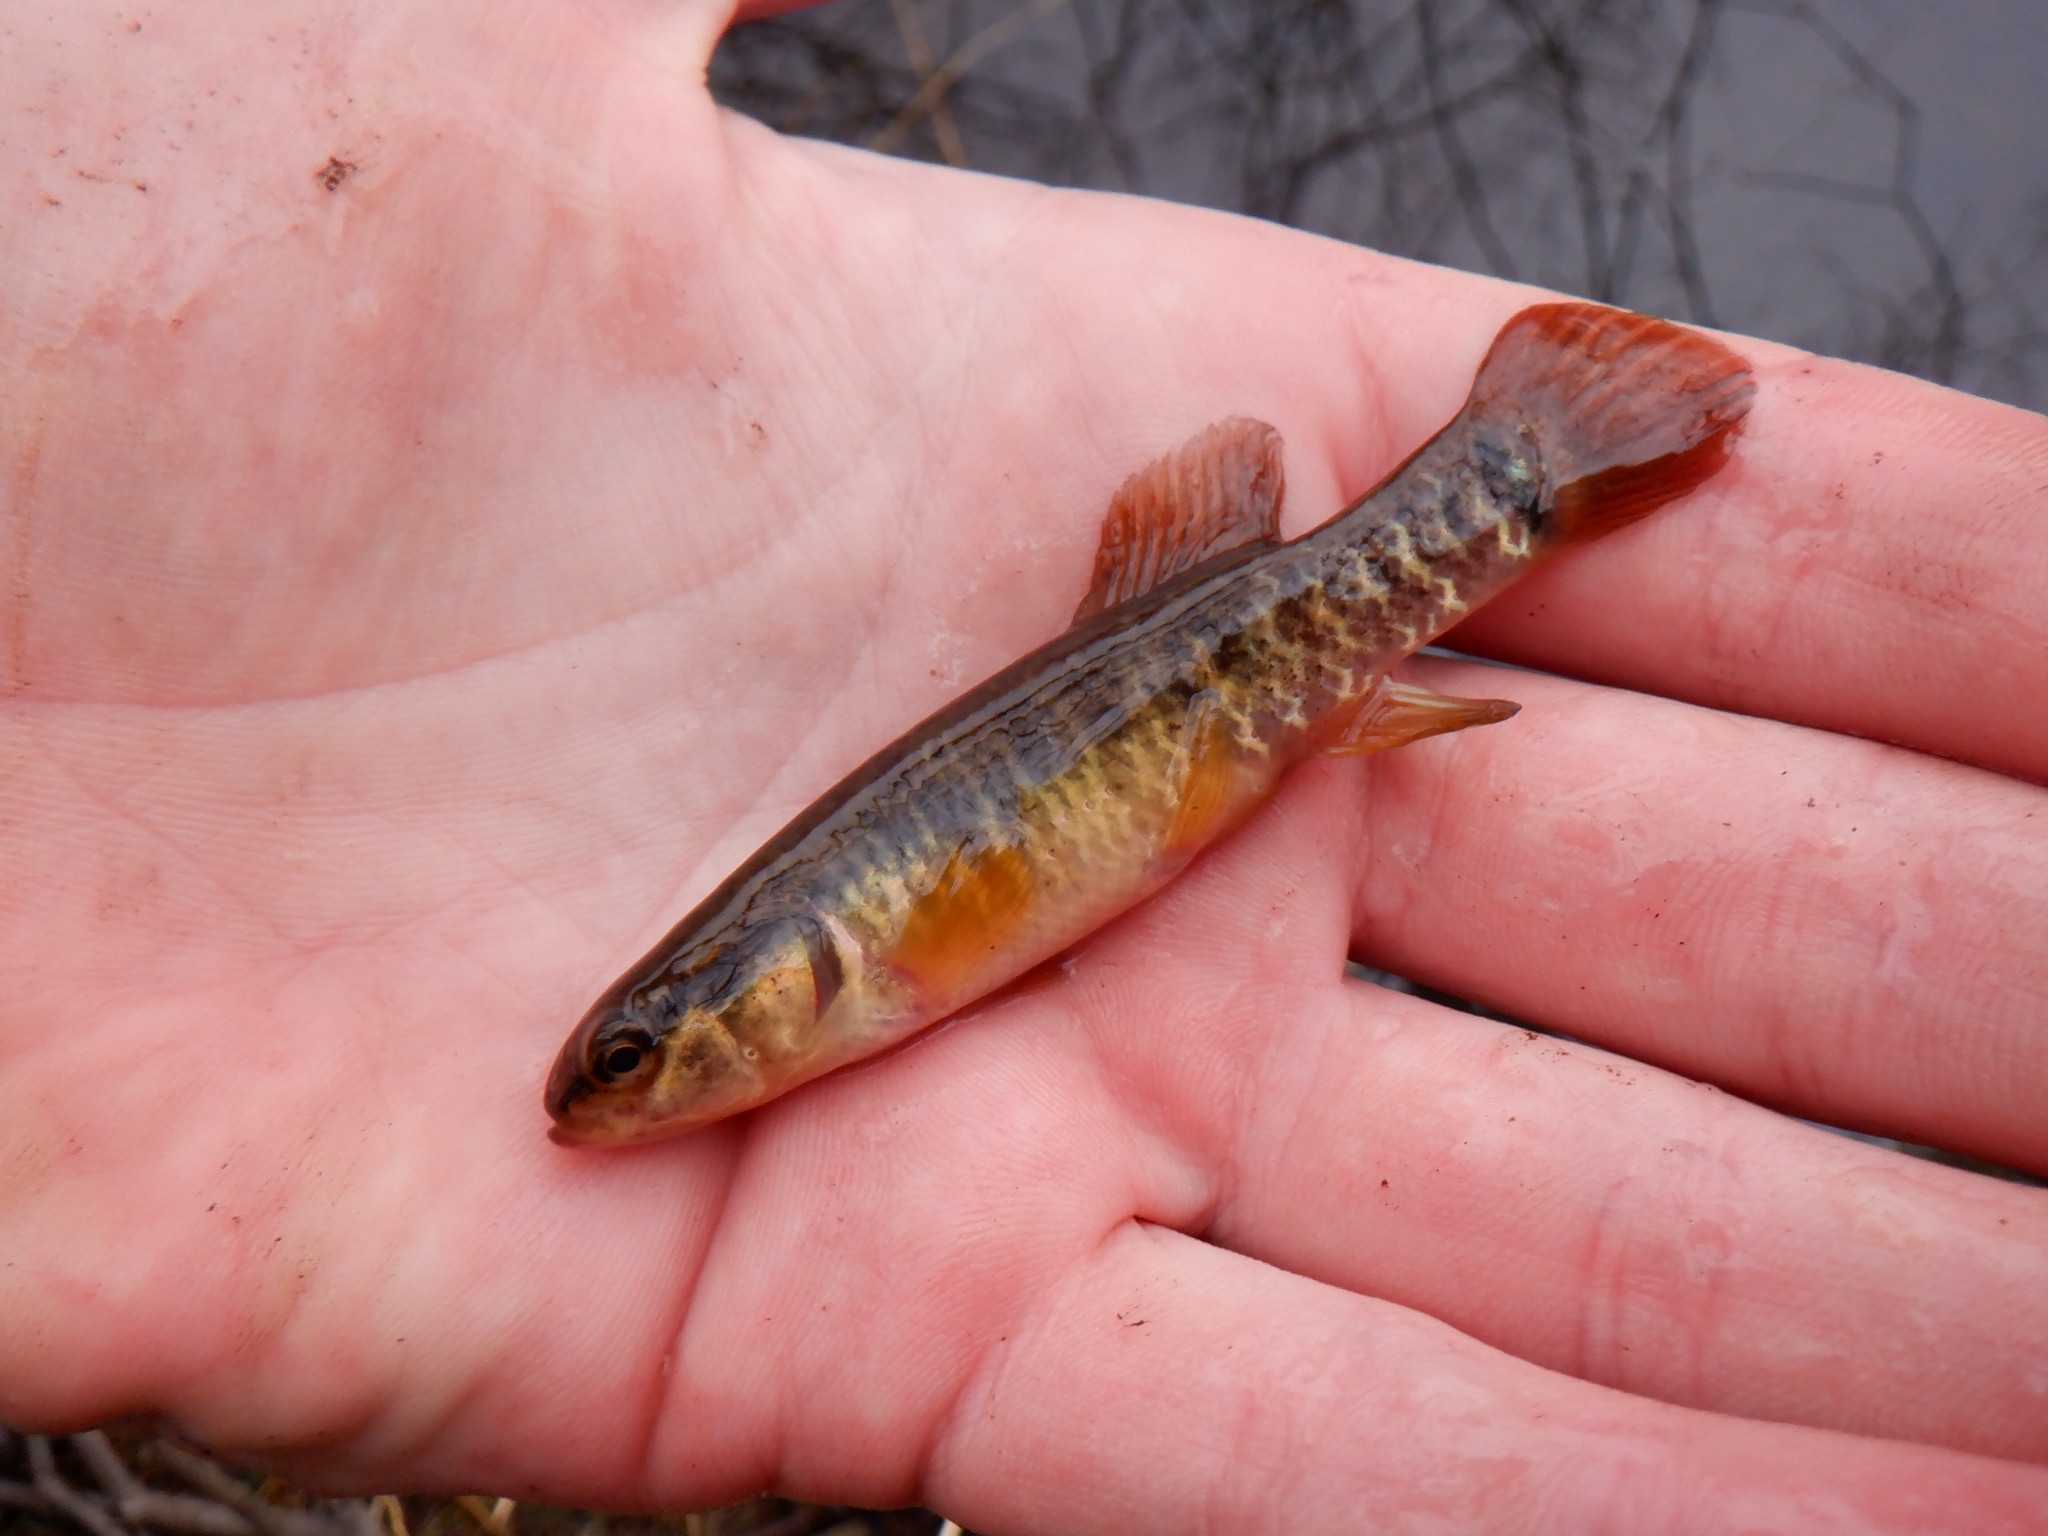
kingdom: Animalia
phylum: Chordata
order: Esociformes
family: Umbridae
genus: Umbra
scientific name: Umbra limi
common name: Central mudminnow
